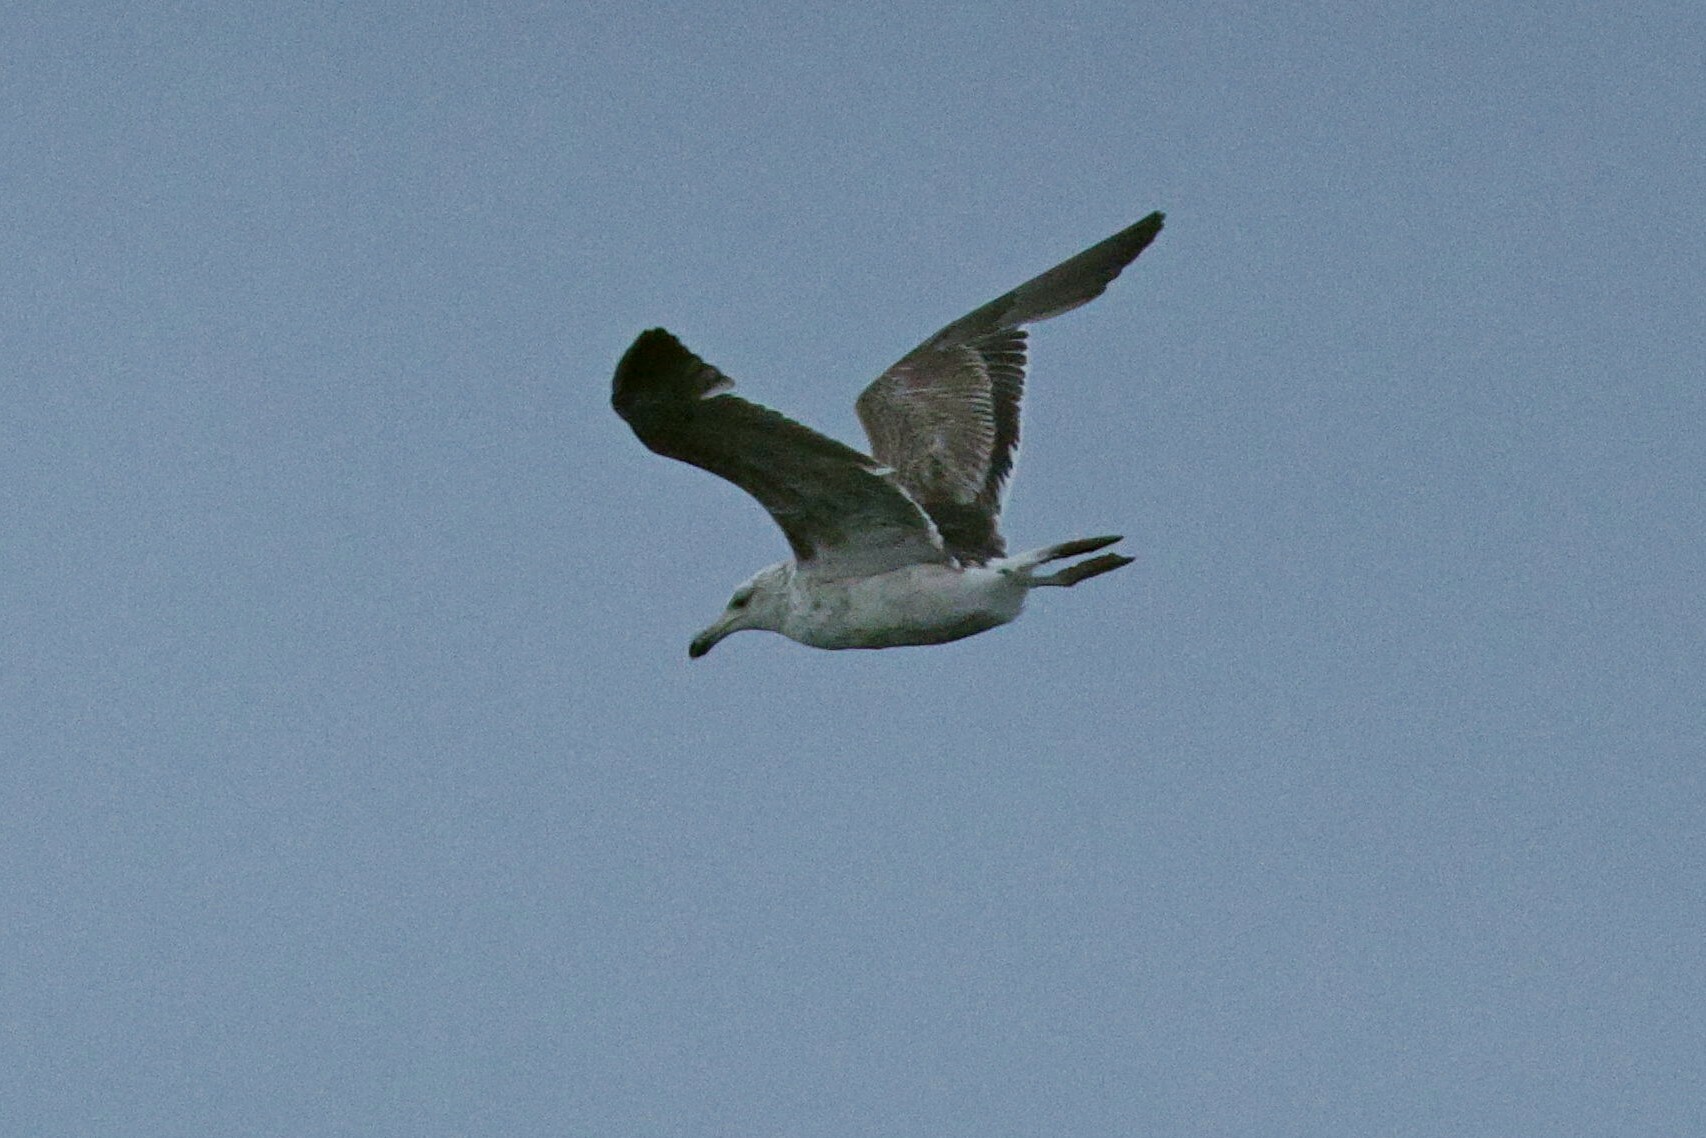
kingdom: Animalia
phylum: Chordata
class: Aves
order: Charadriiformes
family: Laridae
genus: Larus
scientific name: Larus dominicanus
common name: Kelp gull
